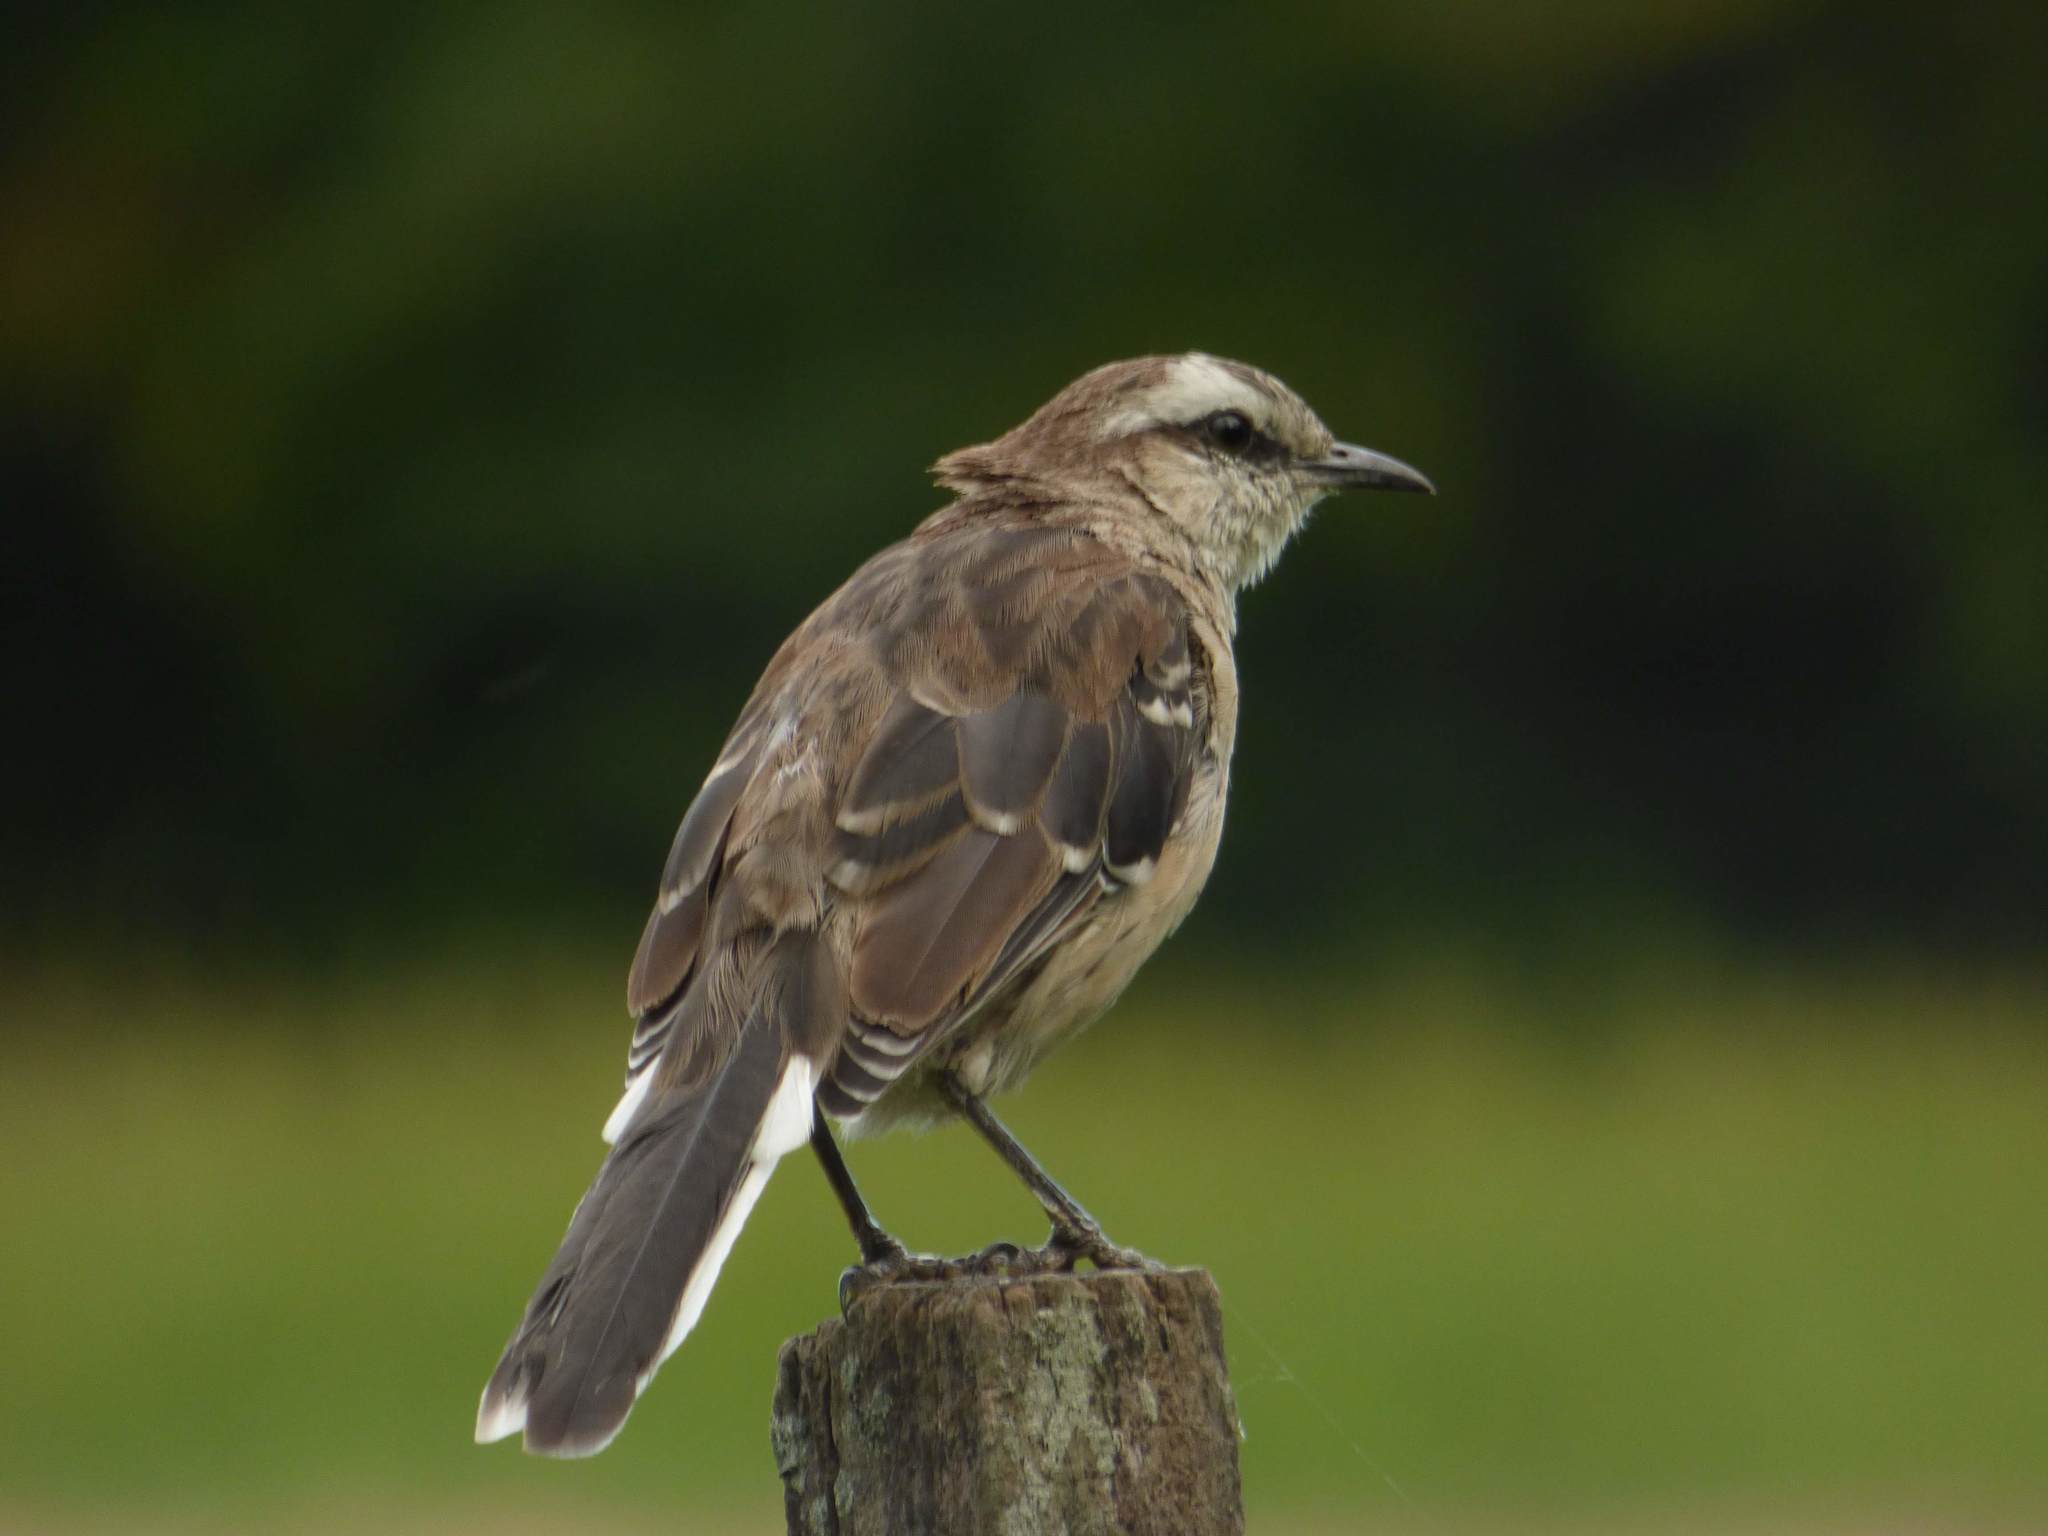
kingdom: Animalia
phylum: Chordata
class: Aves
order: Passeriformes
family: Mimidae
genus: Mimus
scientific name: Mimus saturninus
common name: Chalk-browed mockingbird
